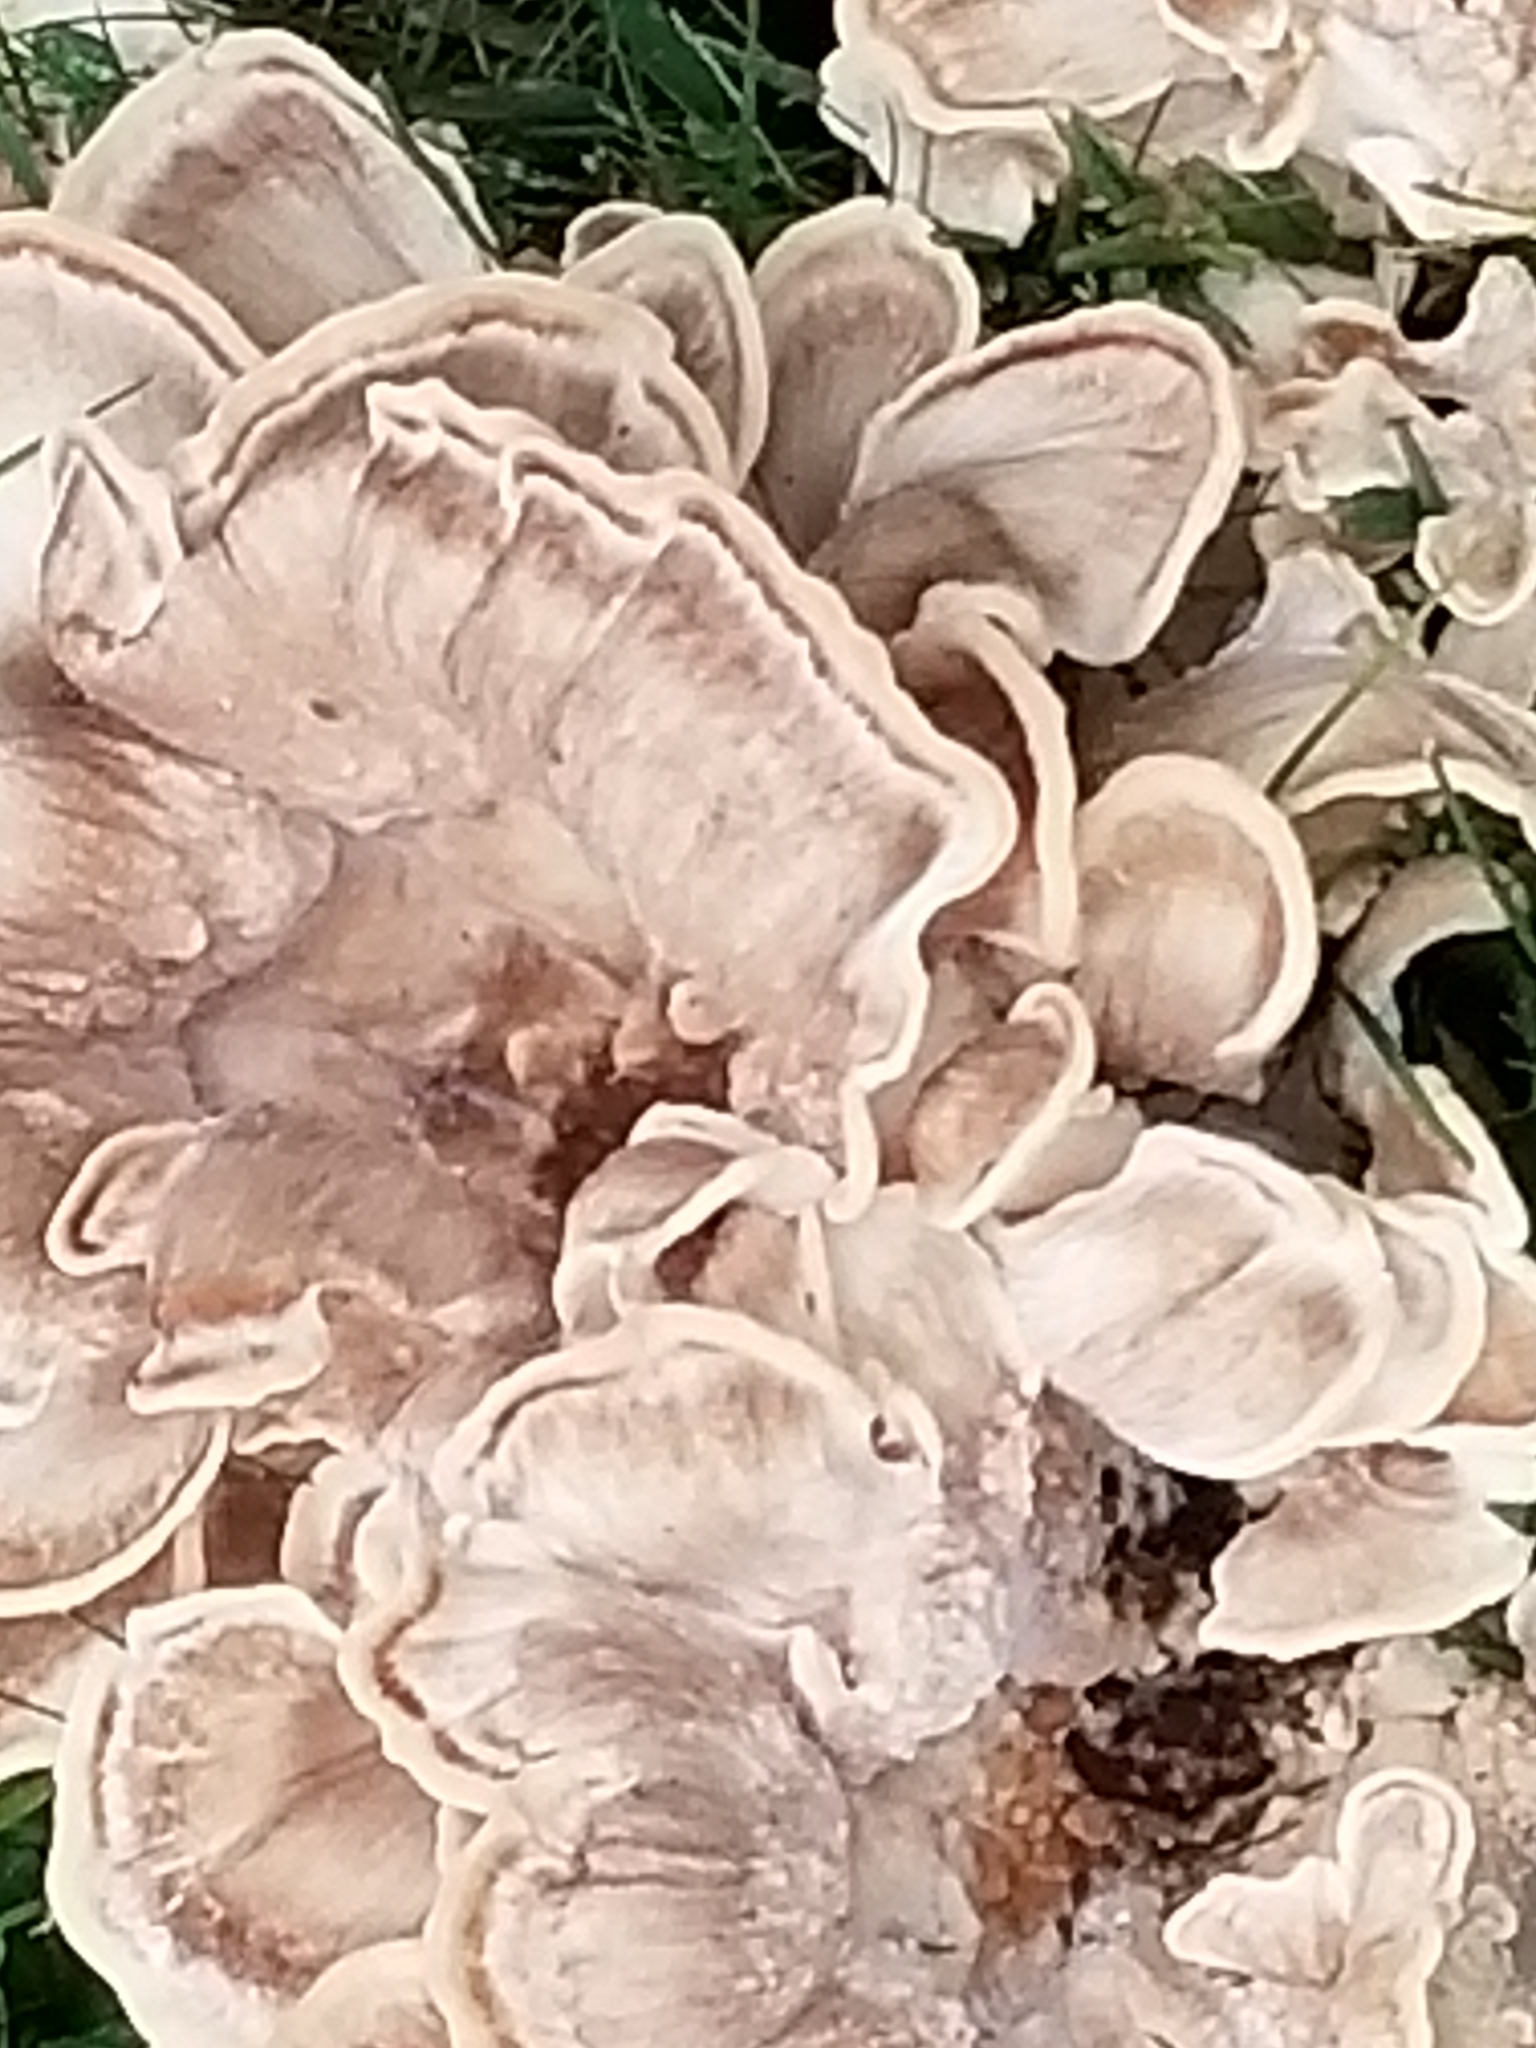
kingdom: Fungi
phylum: Basidiomycota
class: Agaricomycetes
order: Polyporales
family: Meripilaceae
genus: Meripilus
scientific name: Meripilus sumstinei
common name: Black-staining polypore
